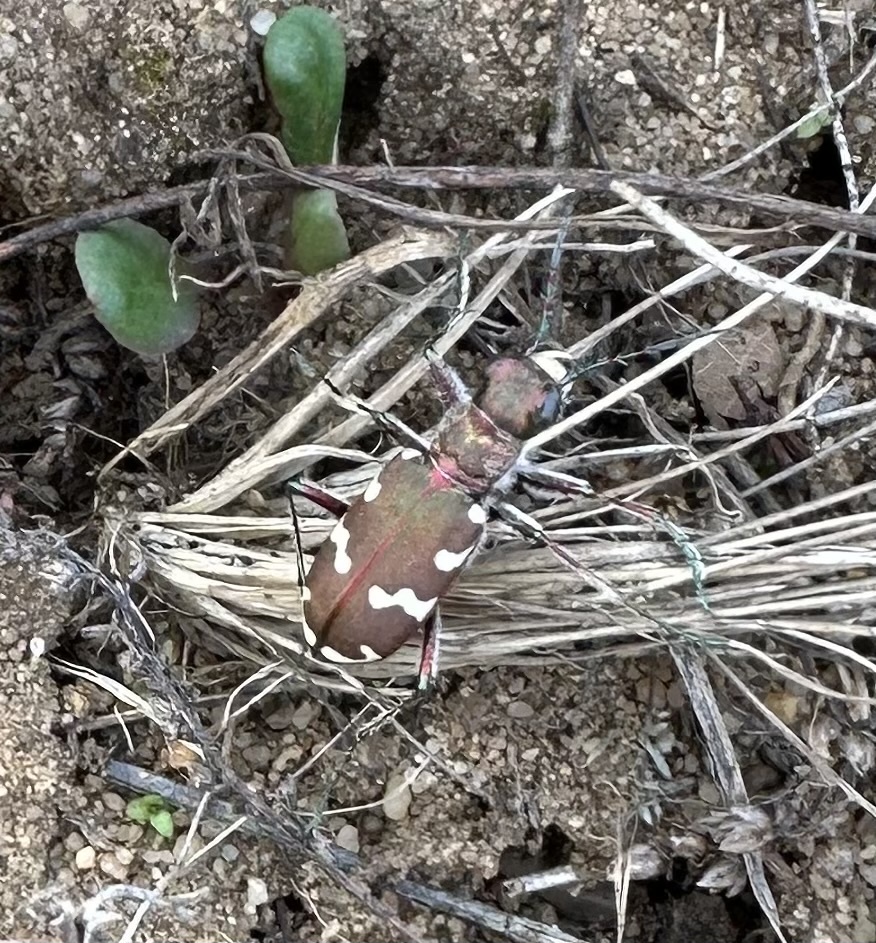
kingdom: Animalia
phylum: Arthropoda
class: Insecta
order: Coleoptera
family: Carabidae
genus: Cicindela
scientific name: Cicindela hybrida
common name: Northern dune tiger beetle
